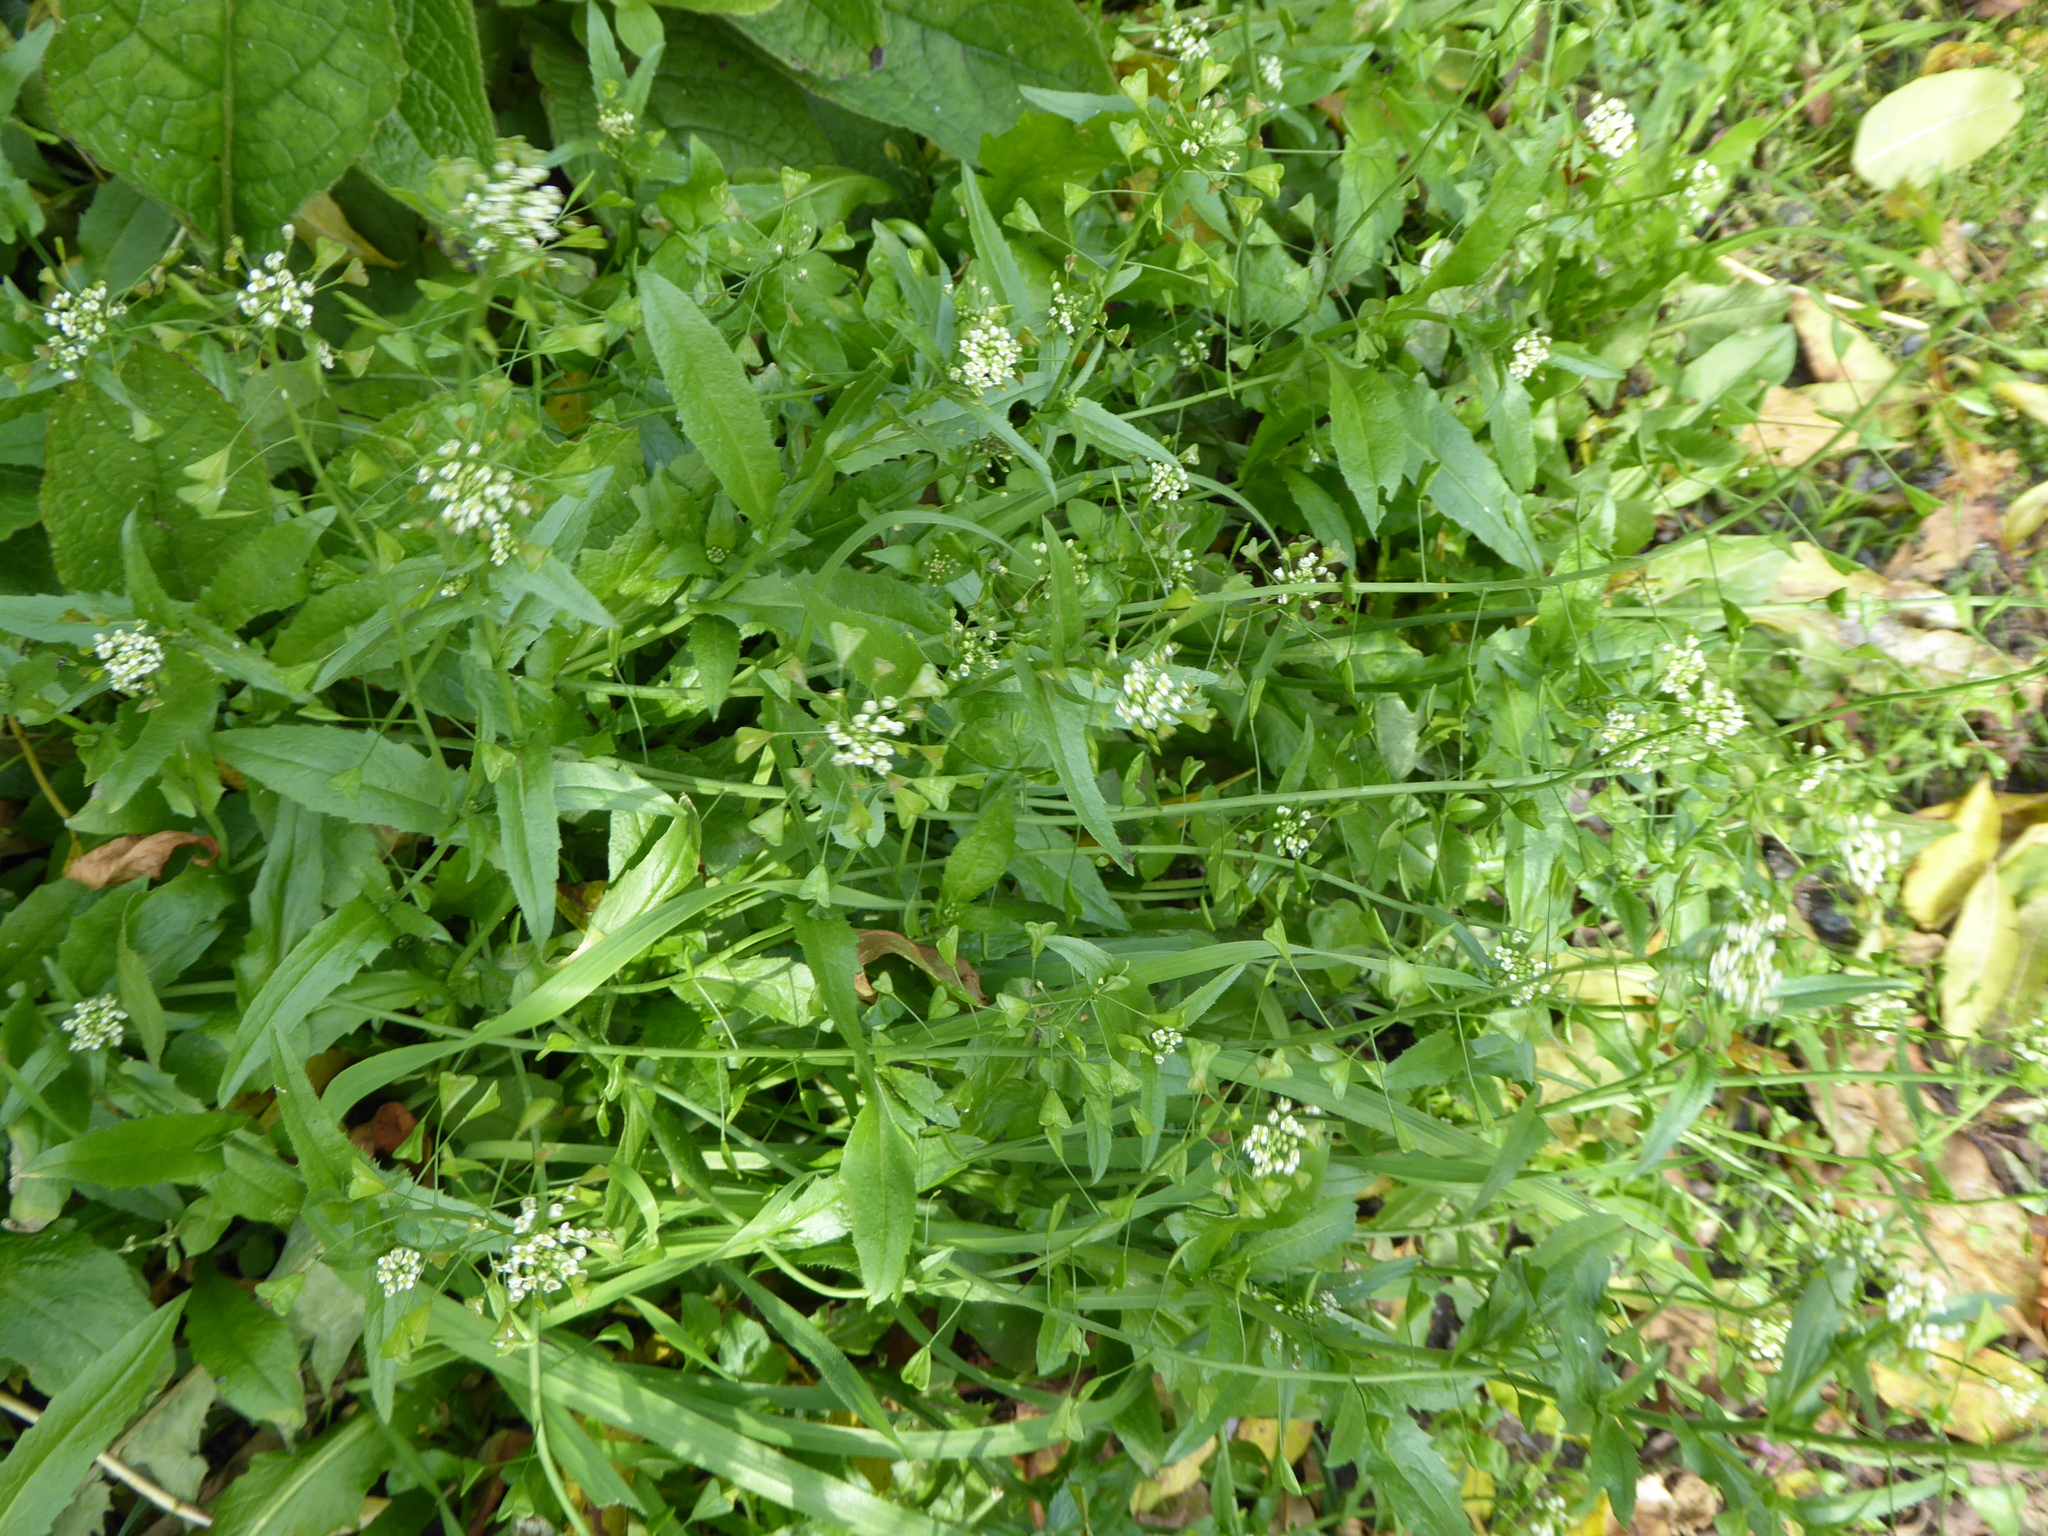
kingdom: Plantae
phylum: Tracheophyta
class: Magnoliopsida
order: Brassicales
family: Brassicaceae
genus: Capsella
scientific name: Capsella bursa-pastoris
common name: Shepherd's purse
